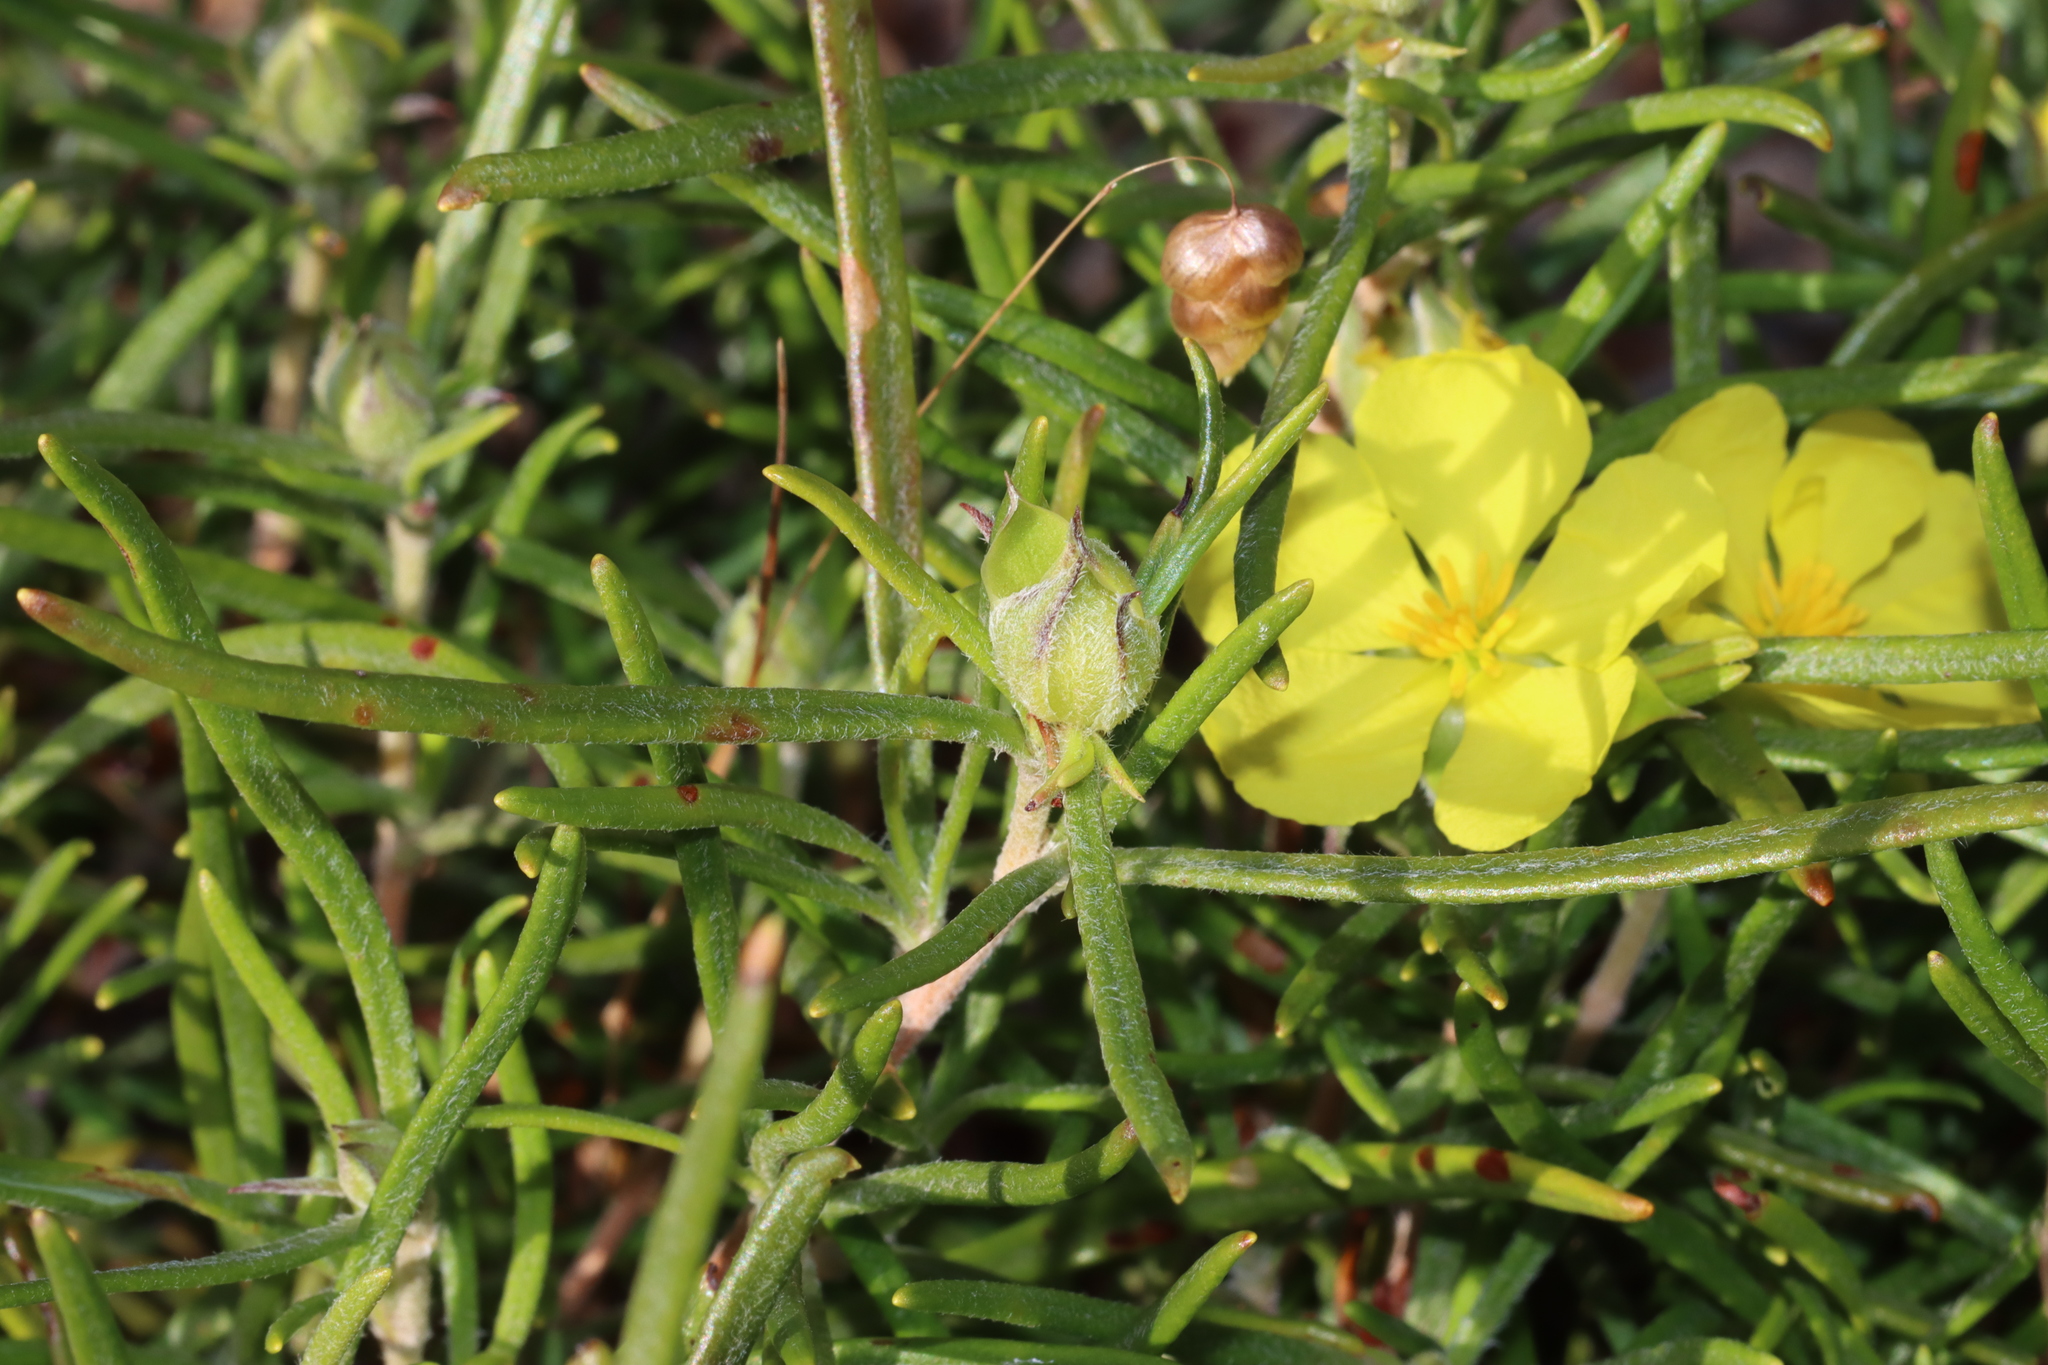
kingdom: Plantae
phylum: Tracheophyta
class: Magnoliopsida
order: Dilleniales
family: Dilleniaceae
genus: Hibbertia
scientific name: Hibbertia huegelii
